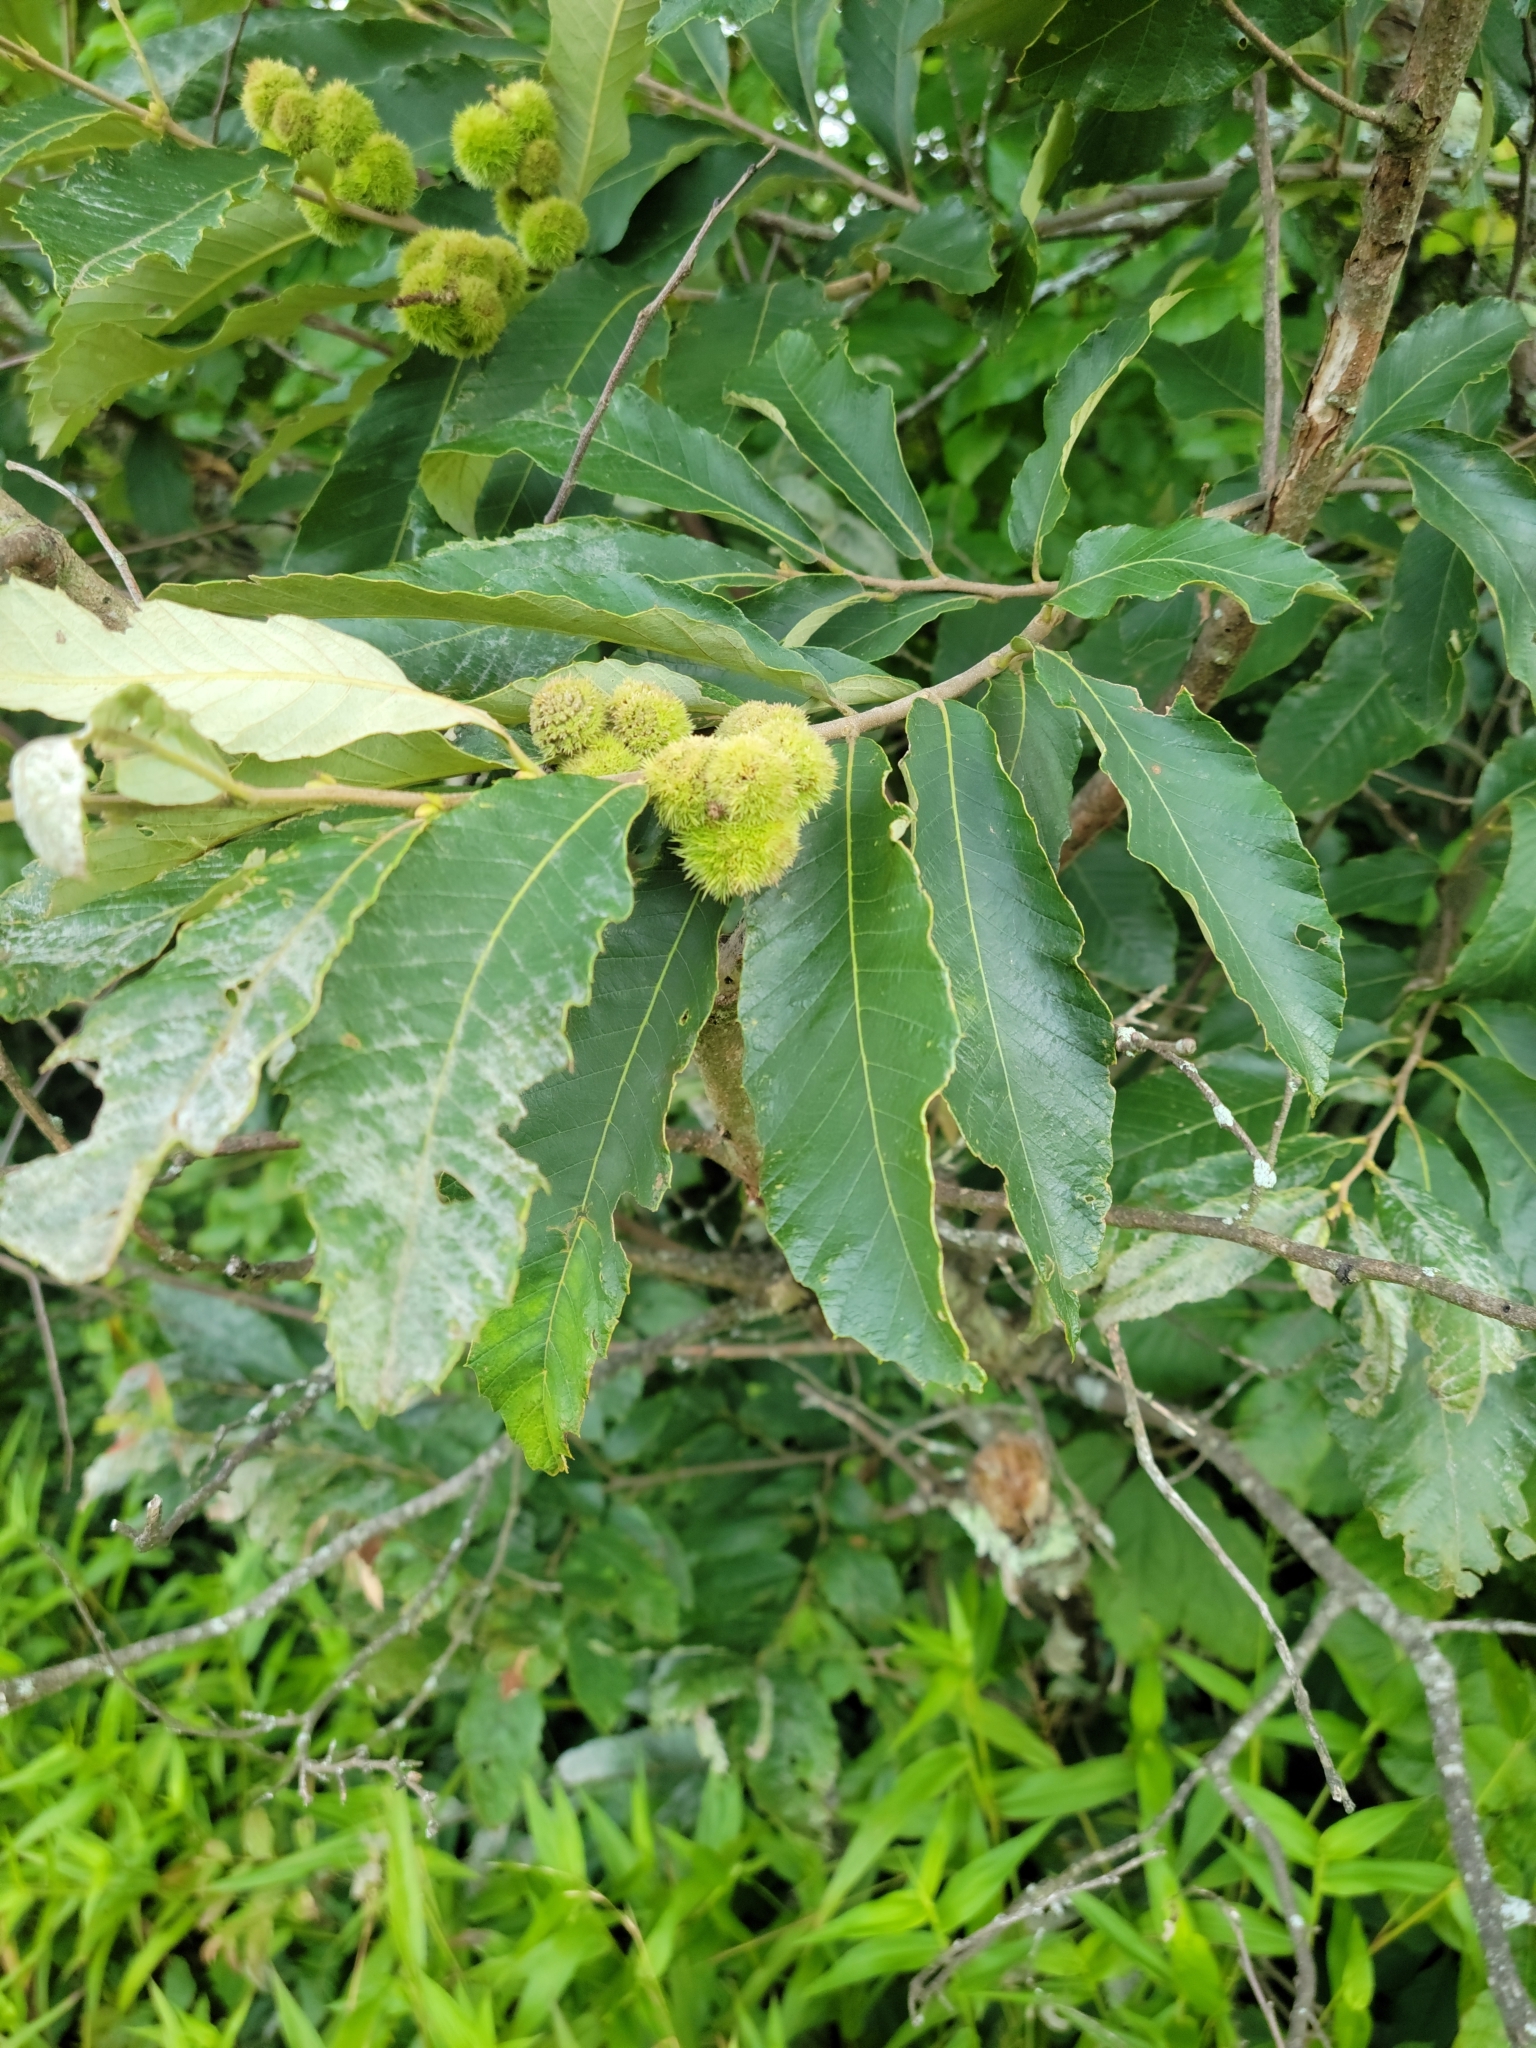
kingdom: Plantae
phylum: Tracheophyta
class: Magnoliopsida
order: Fagales
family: Fagaceae
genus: Castanea
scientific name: Castanea pumila
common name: Chinkapin
